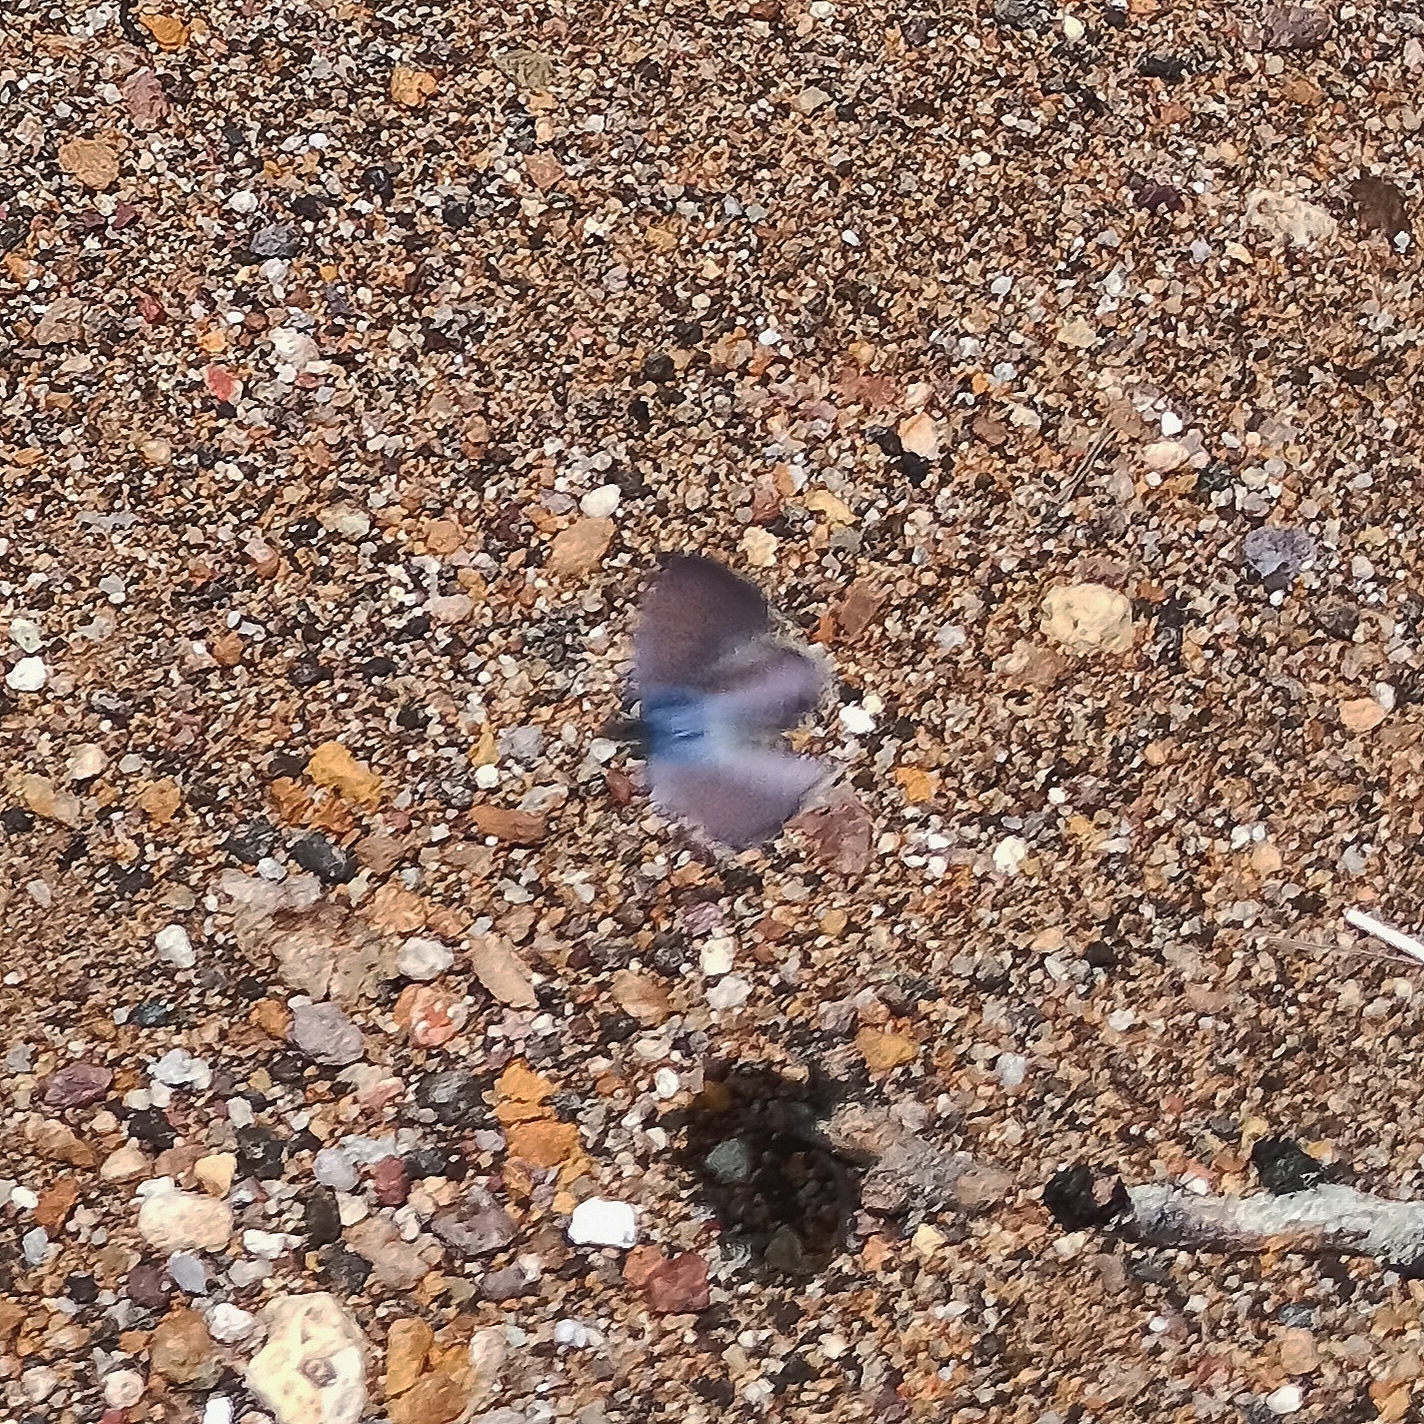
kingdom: Animalia
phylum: Arthropoda
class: Insecta
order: Lepidoptera
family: Lycaenidae
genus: Celastrina
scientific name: Celastrina ladon
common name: Spring azure
